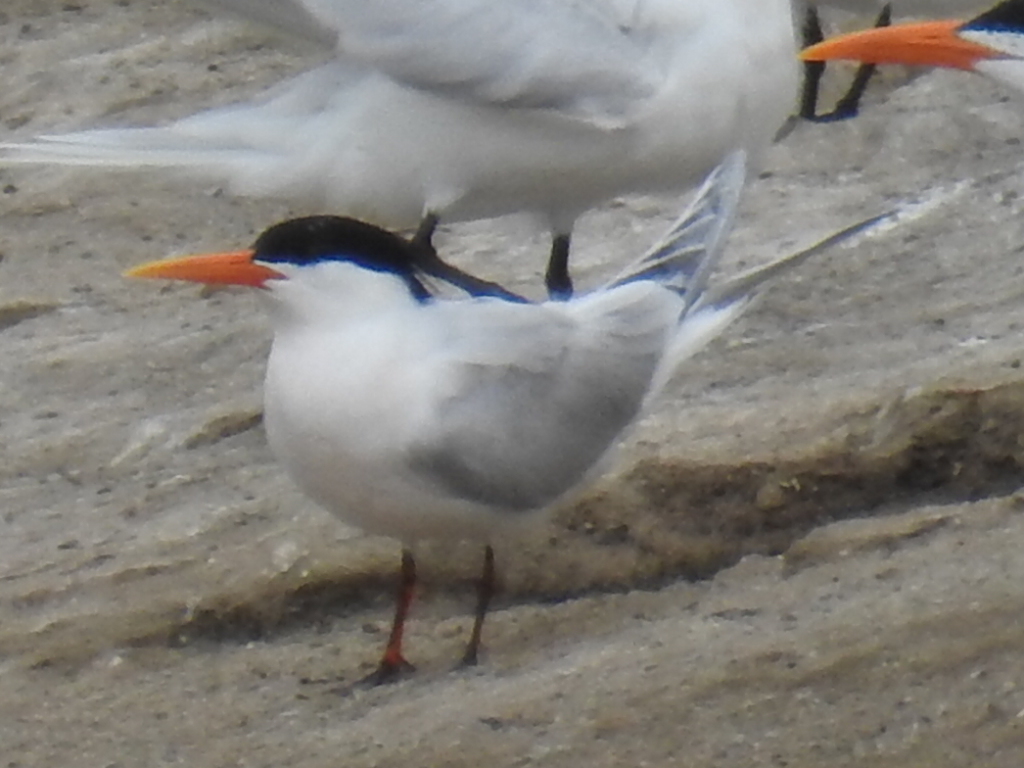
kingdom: Animalia
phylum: Chordata
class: Aves
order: Charadriiformes
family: Laridae
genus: Thalasseus
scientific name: Thalasseus maximus
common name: Royal tern
